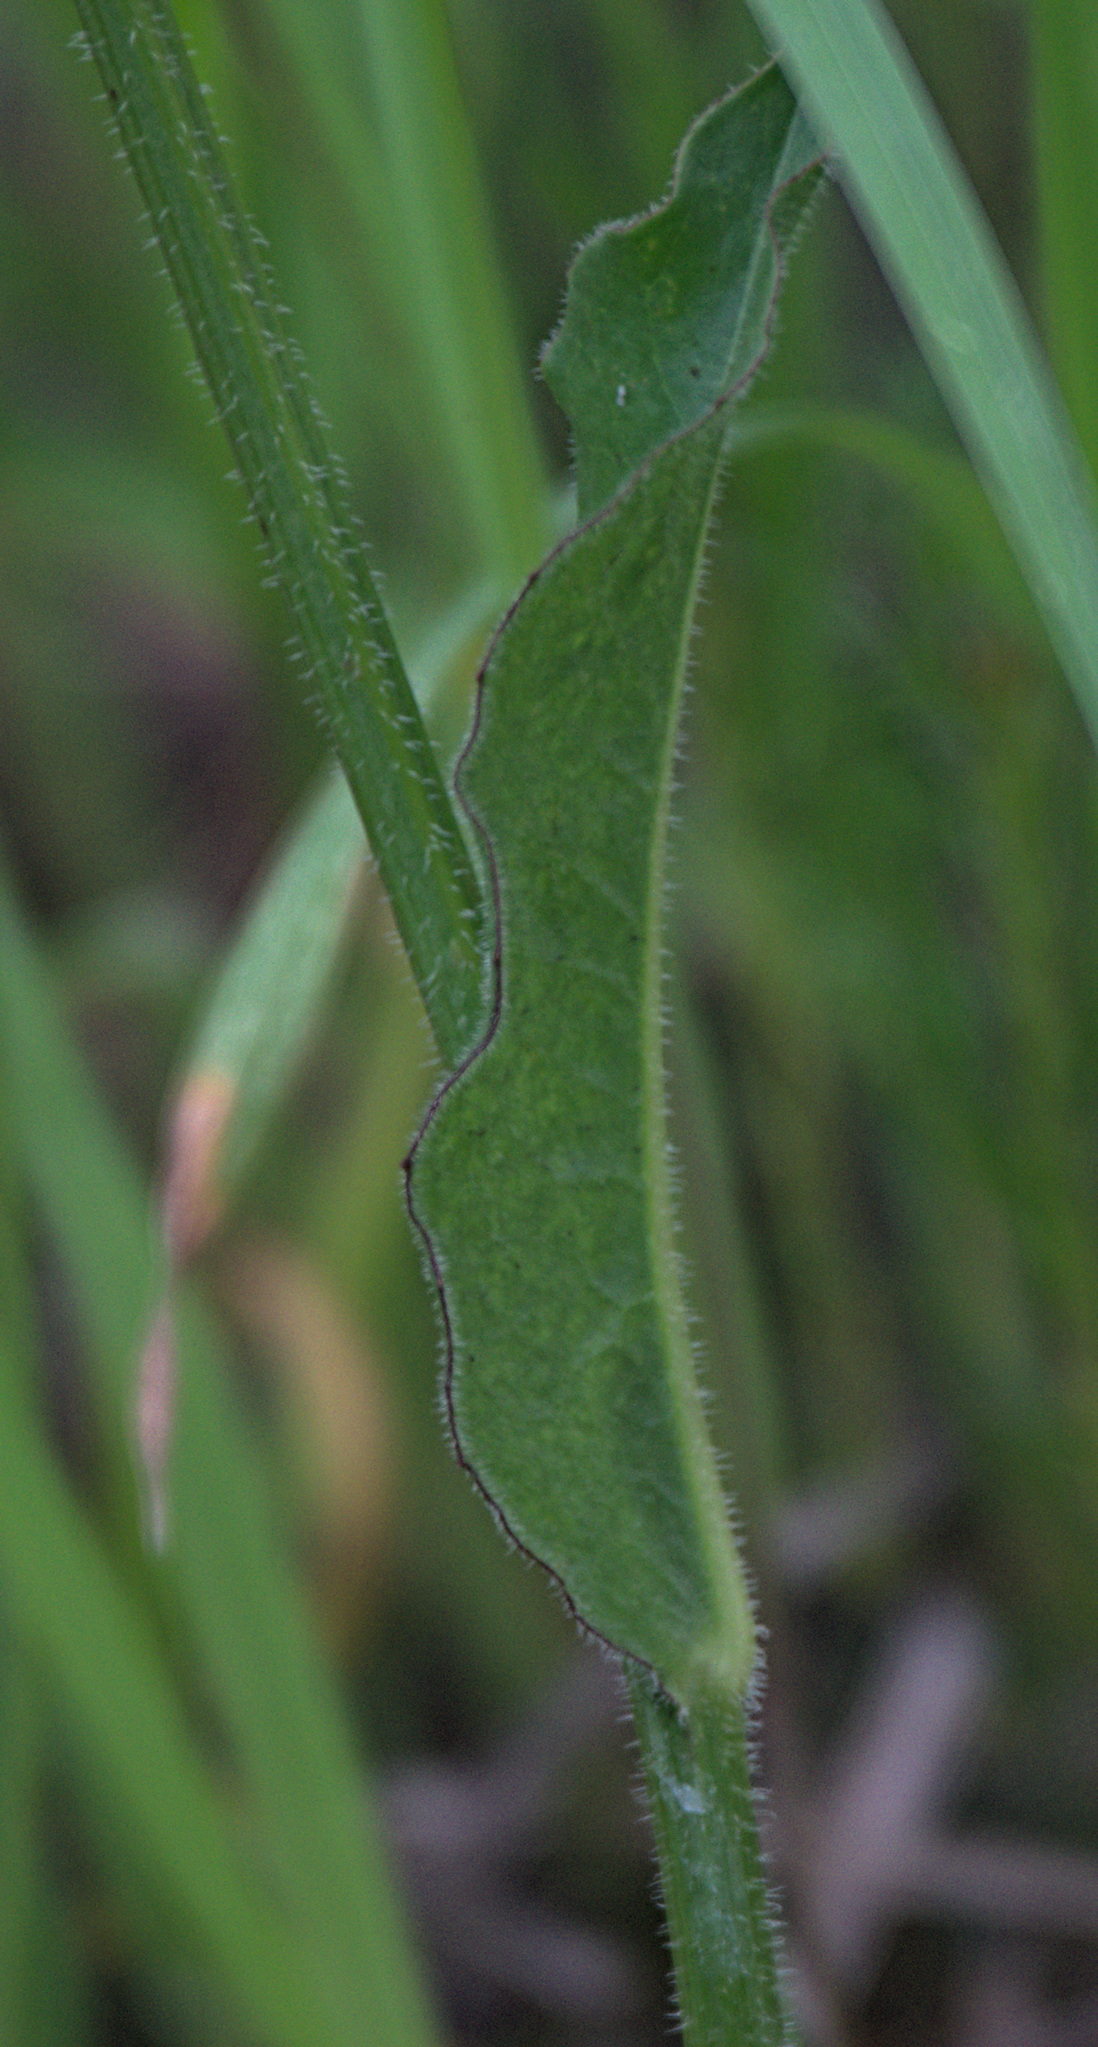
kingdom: Plantae
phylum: Tracheophyta
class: Magnoliopsida
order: Asterales
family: Asteraceae
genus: Trommsdorffia
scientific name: Trommsdorffia maculata
